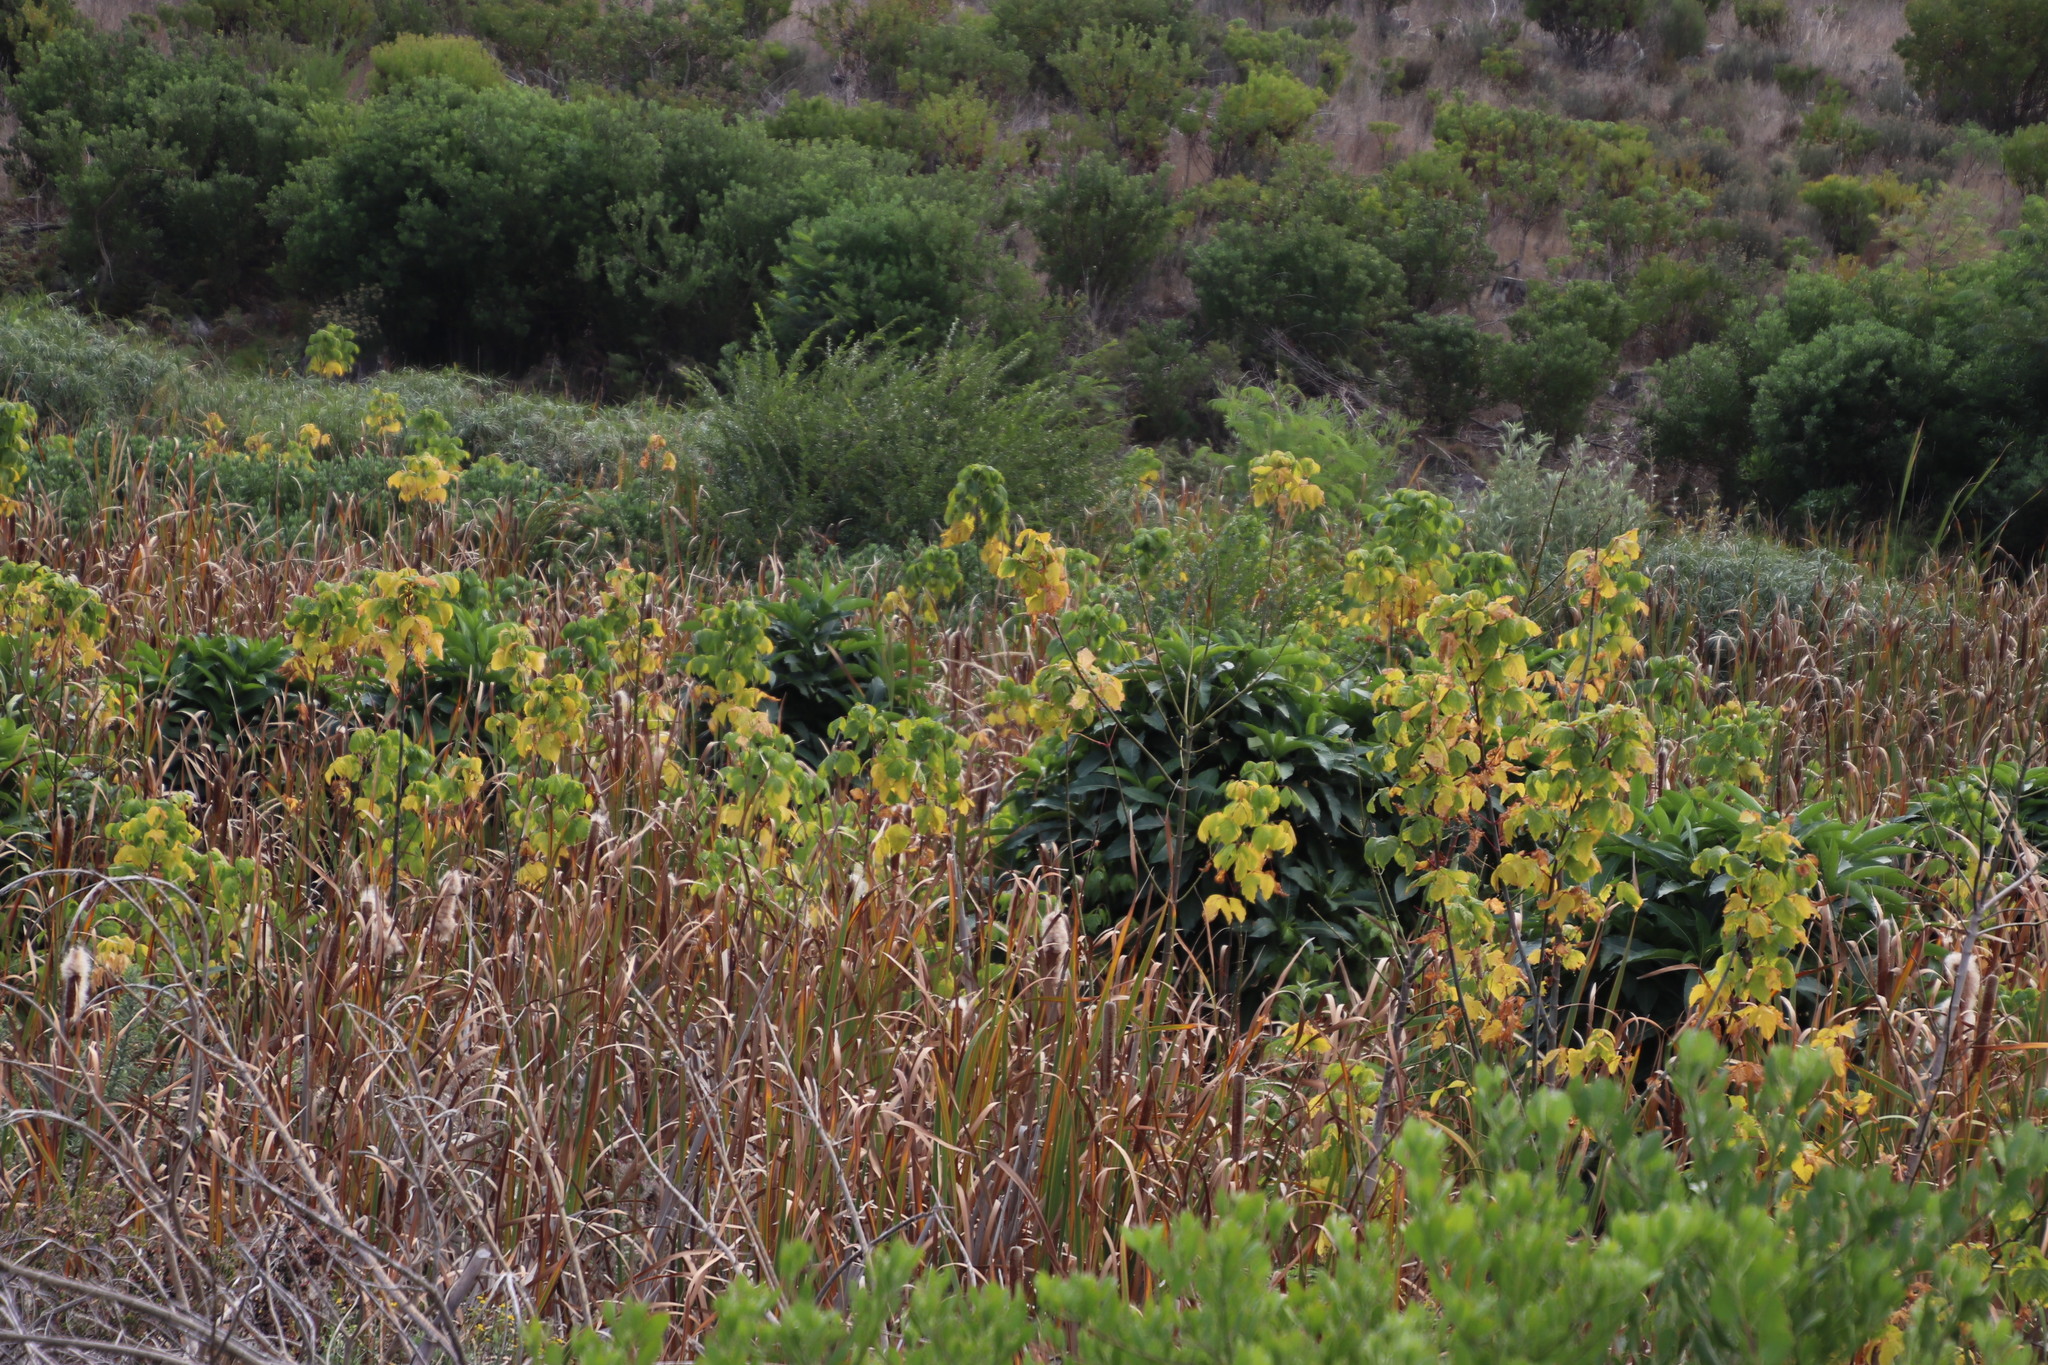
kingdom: Plantae
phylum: Tracheophyta
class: Magnoliopsida
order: Gentianales
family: Apocynaceae
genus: Rauvolfia
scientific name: Rauvolfia caffra
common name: Quininetree
